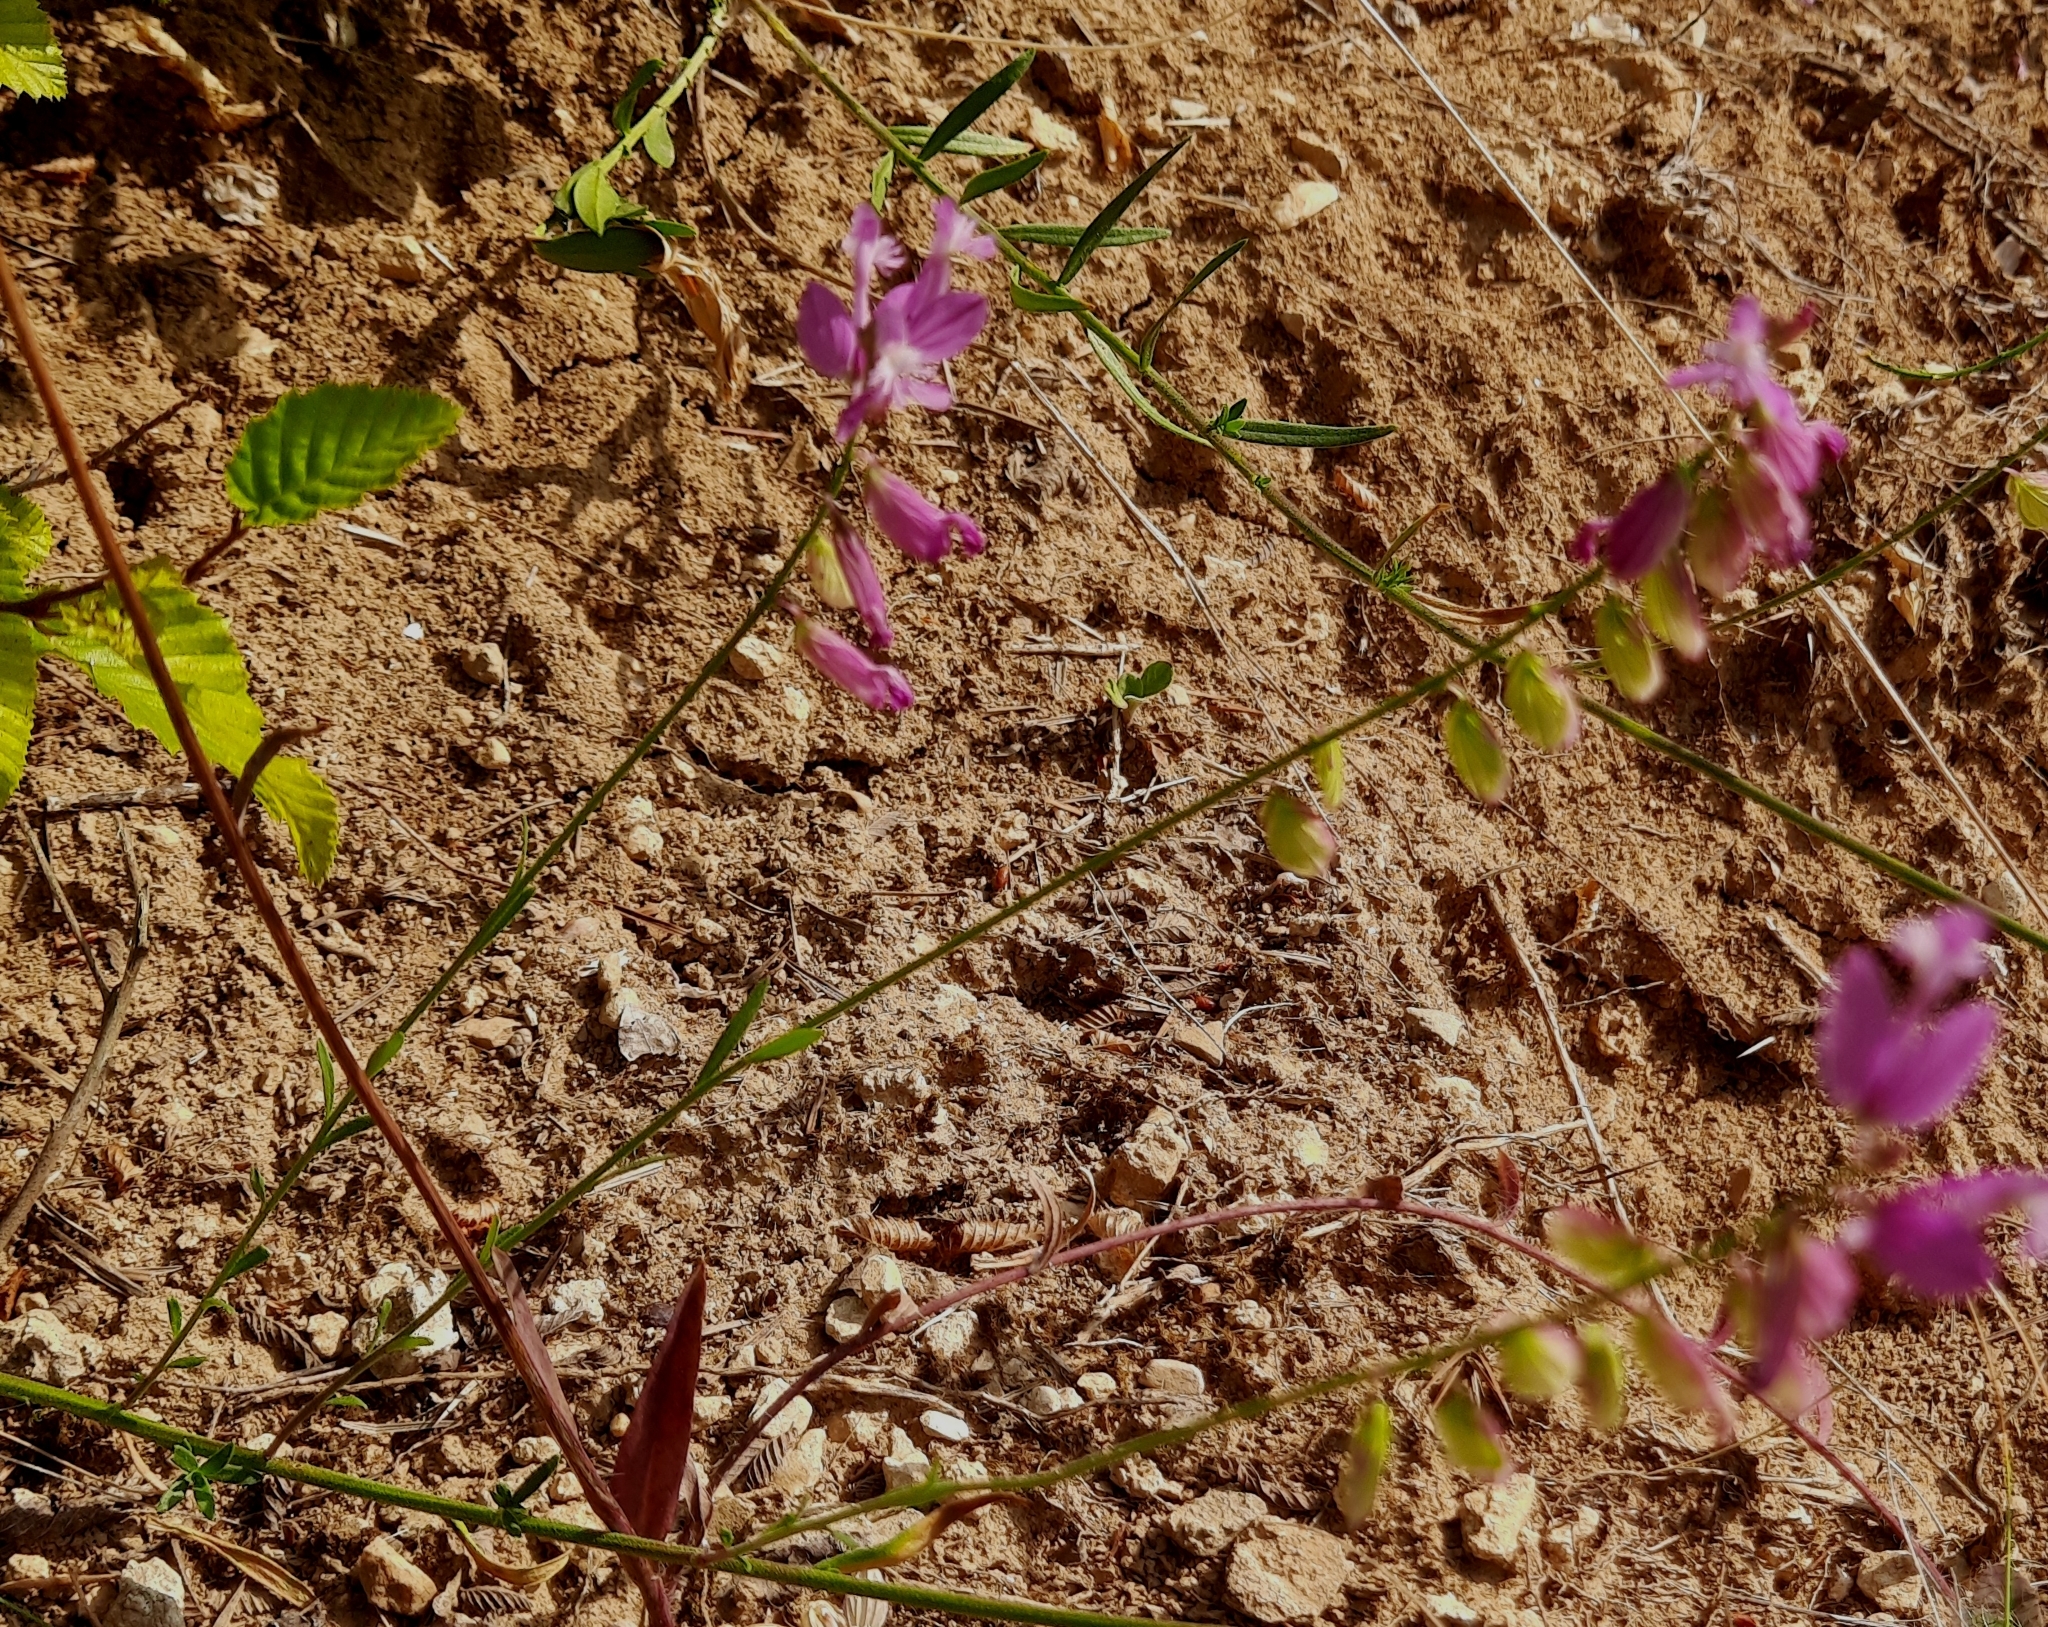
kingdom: Plantae
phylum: Tracheophyta
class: Magnoliopsida
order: Fabales
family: Polygalaceae
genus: Polygala
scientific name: Polygala major
